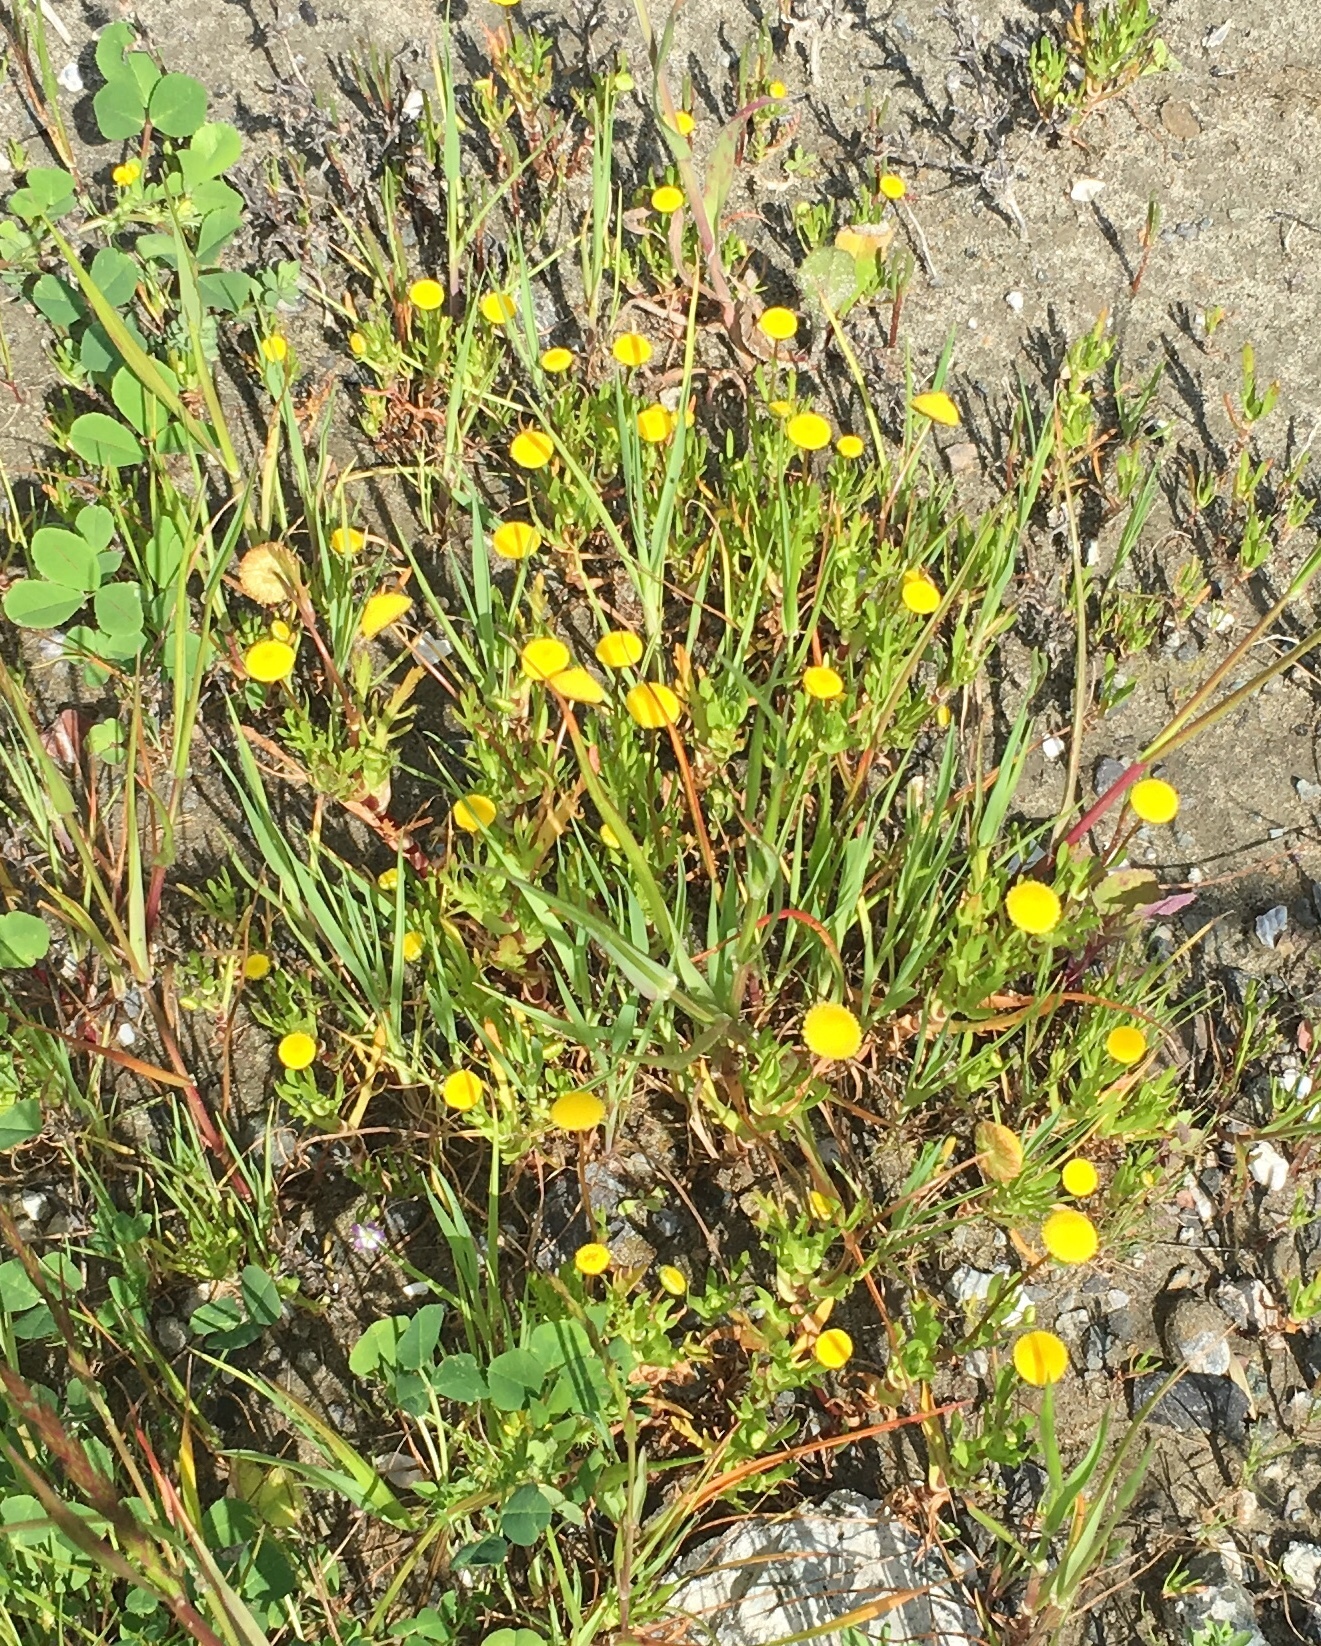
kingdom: Plantae
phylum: Tracheophyta
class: Magnoliopsida
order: Asterales
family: Asteraceae
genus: Cotula
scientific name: Cotula coronopifolia
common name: Buttonweed
